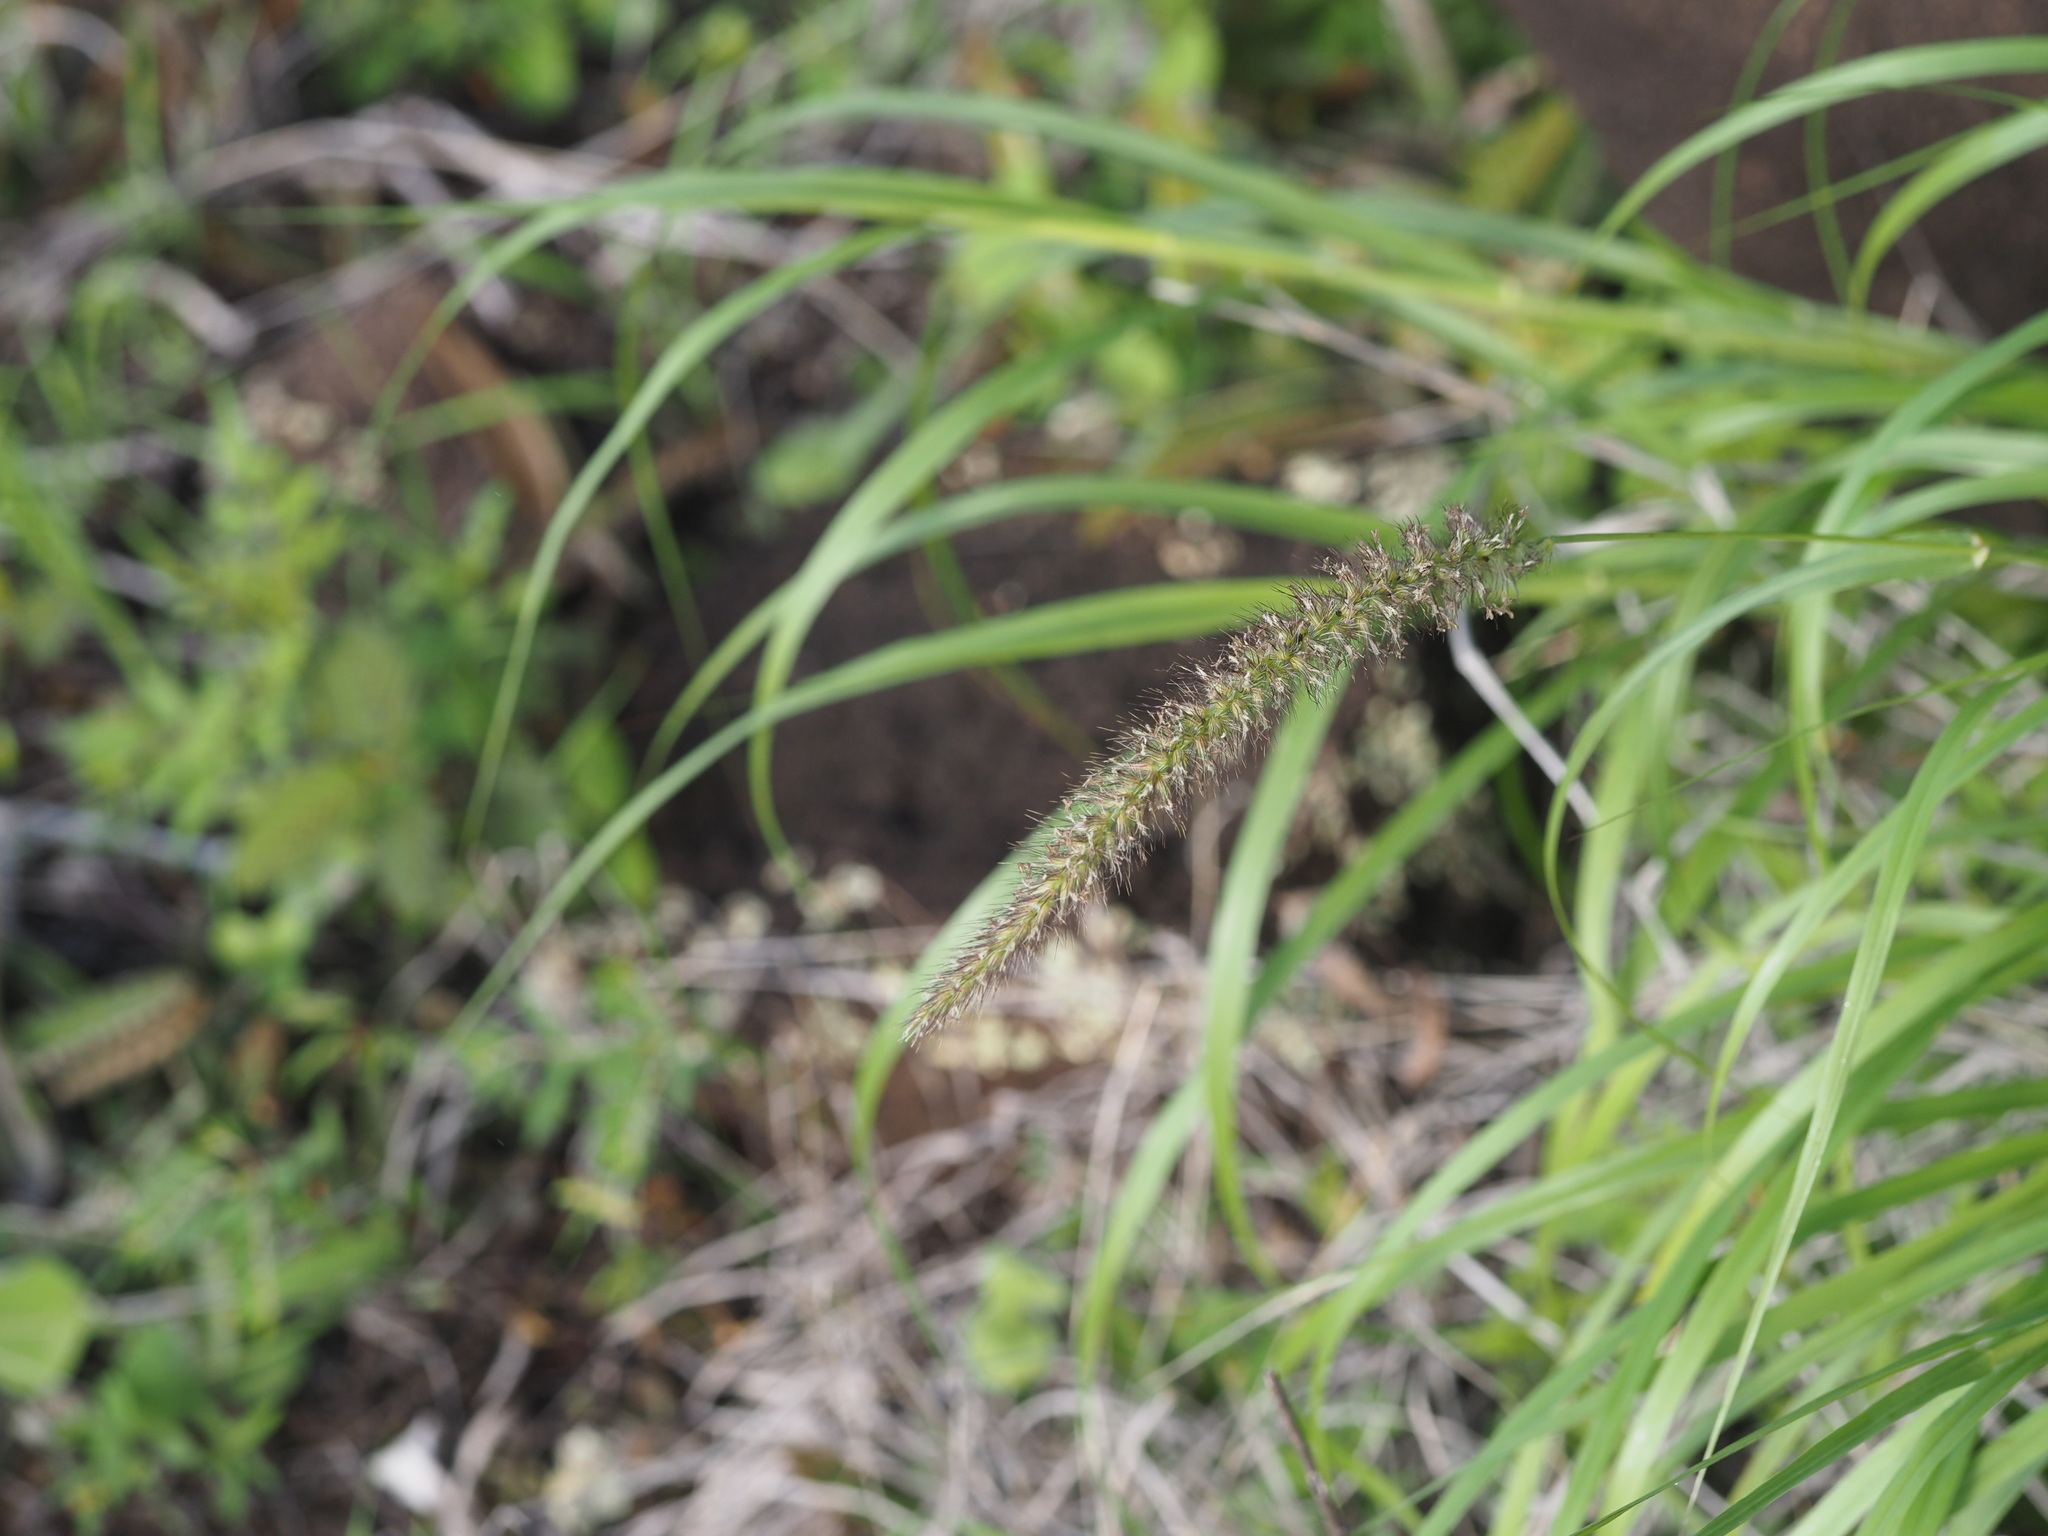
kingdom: Plantae
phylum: Tracheophyta
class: Liliopsida
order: Poales
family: Poaceae
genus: Cenchrus
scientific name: Cenchrus ciliaris
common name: Buffelgrass
